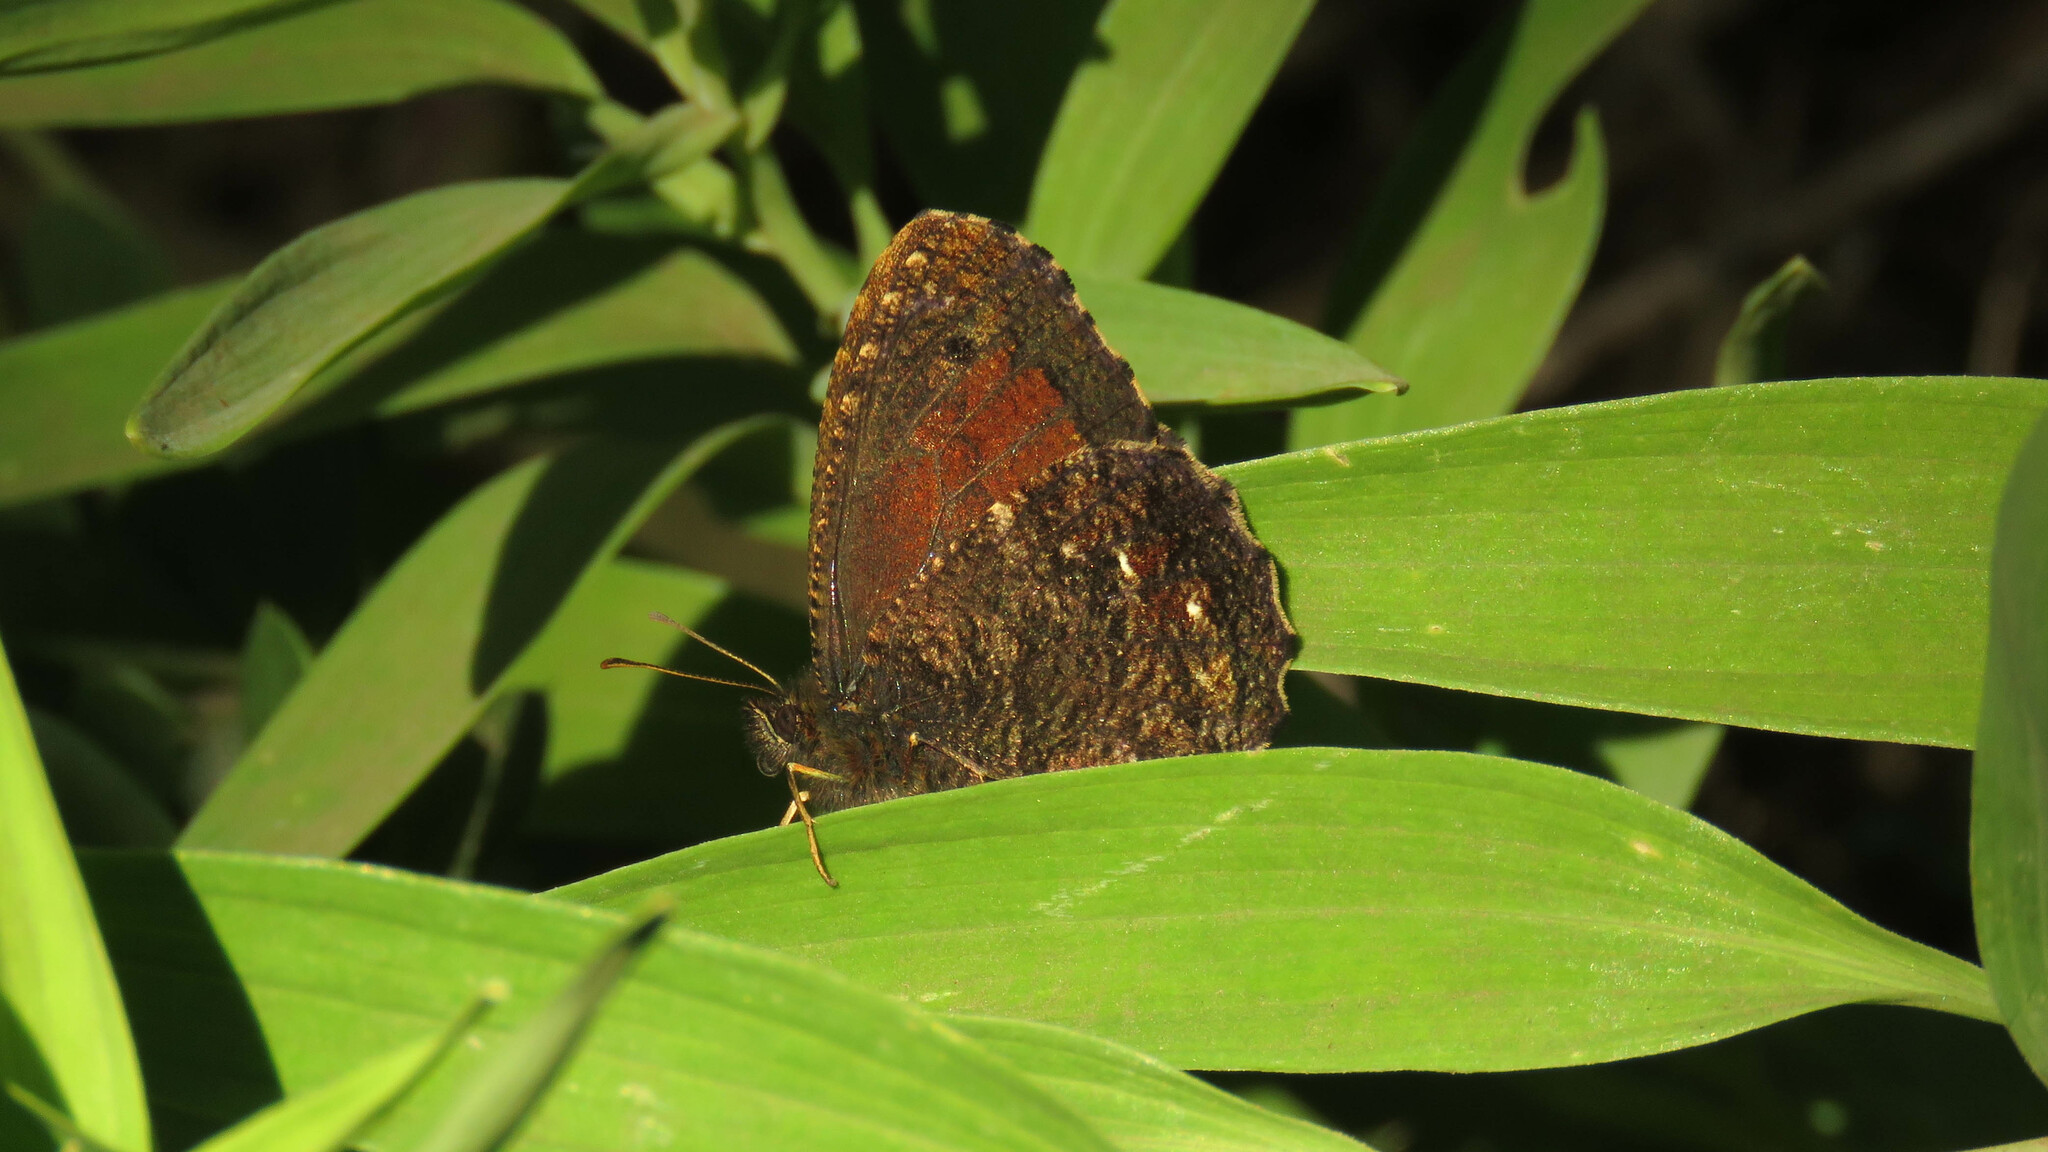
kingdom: Animalia
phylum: Arthropoda
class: Insecta
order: Lepidoptera
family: Nymphalidae
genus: Quilaphoetosus
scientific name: Quilaphoetosus monachus
